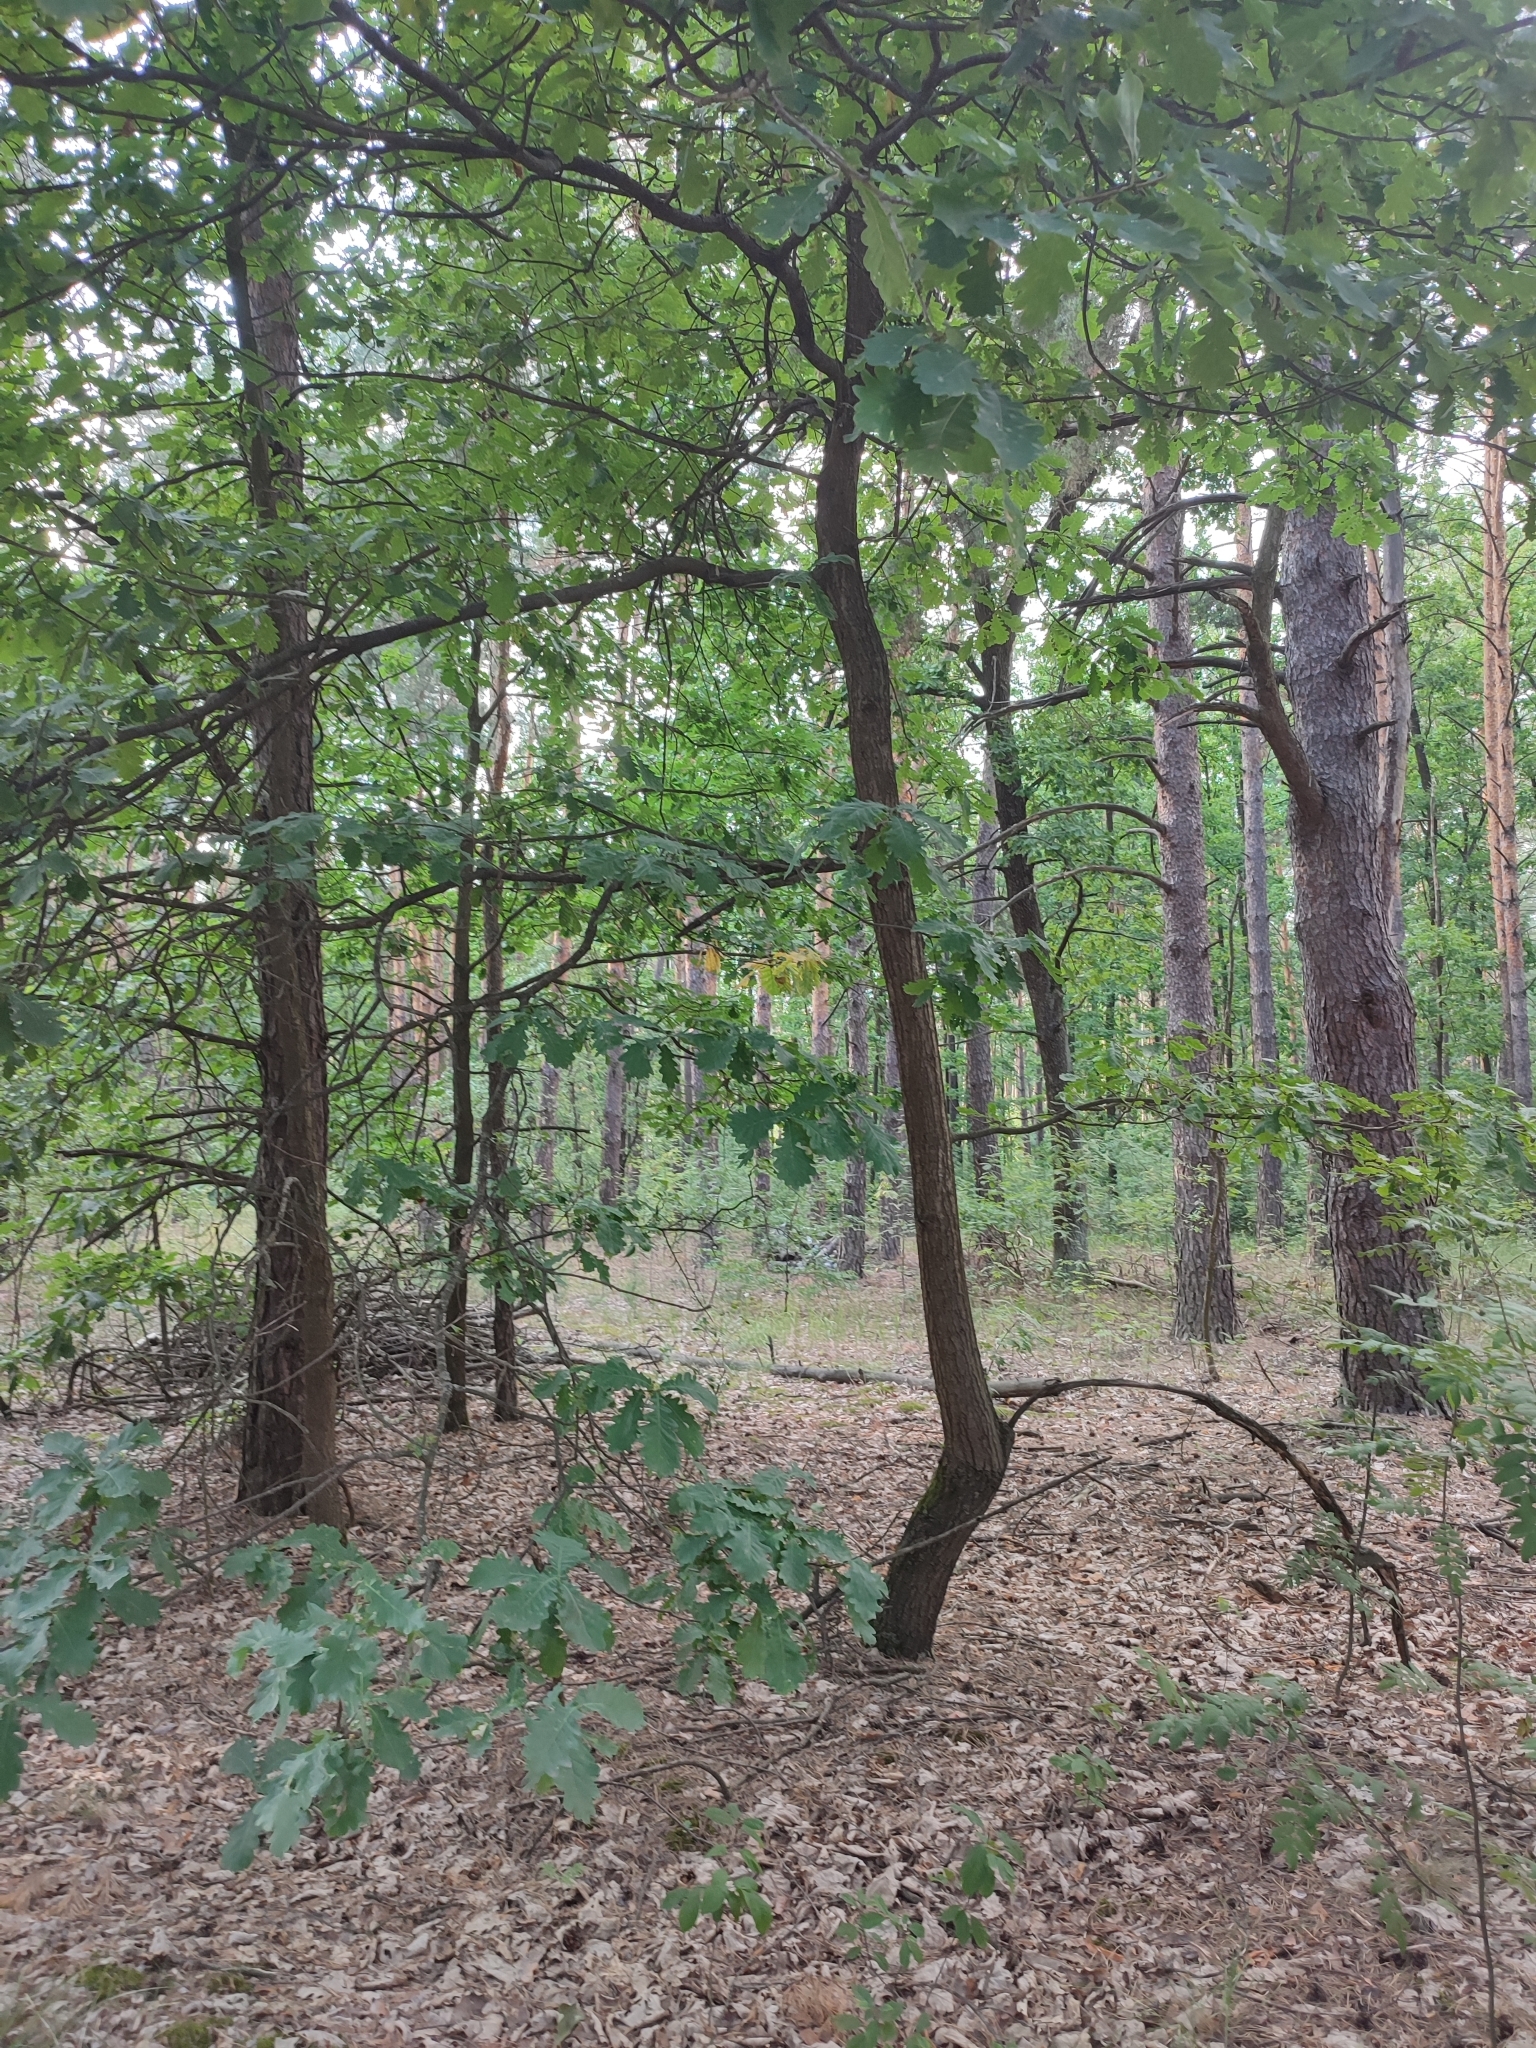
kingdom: Plantae
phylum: Tracheophyta
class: Magnoliopsida
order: Fagales
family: Fagaceae
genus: Quercus
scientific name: Quercus robur
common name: Pedunculate oak
